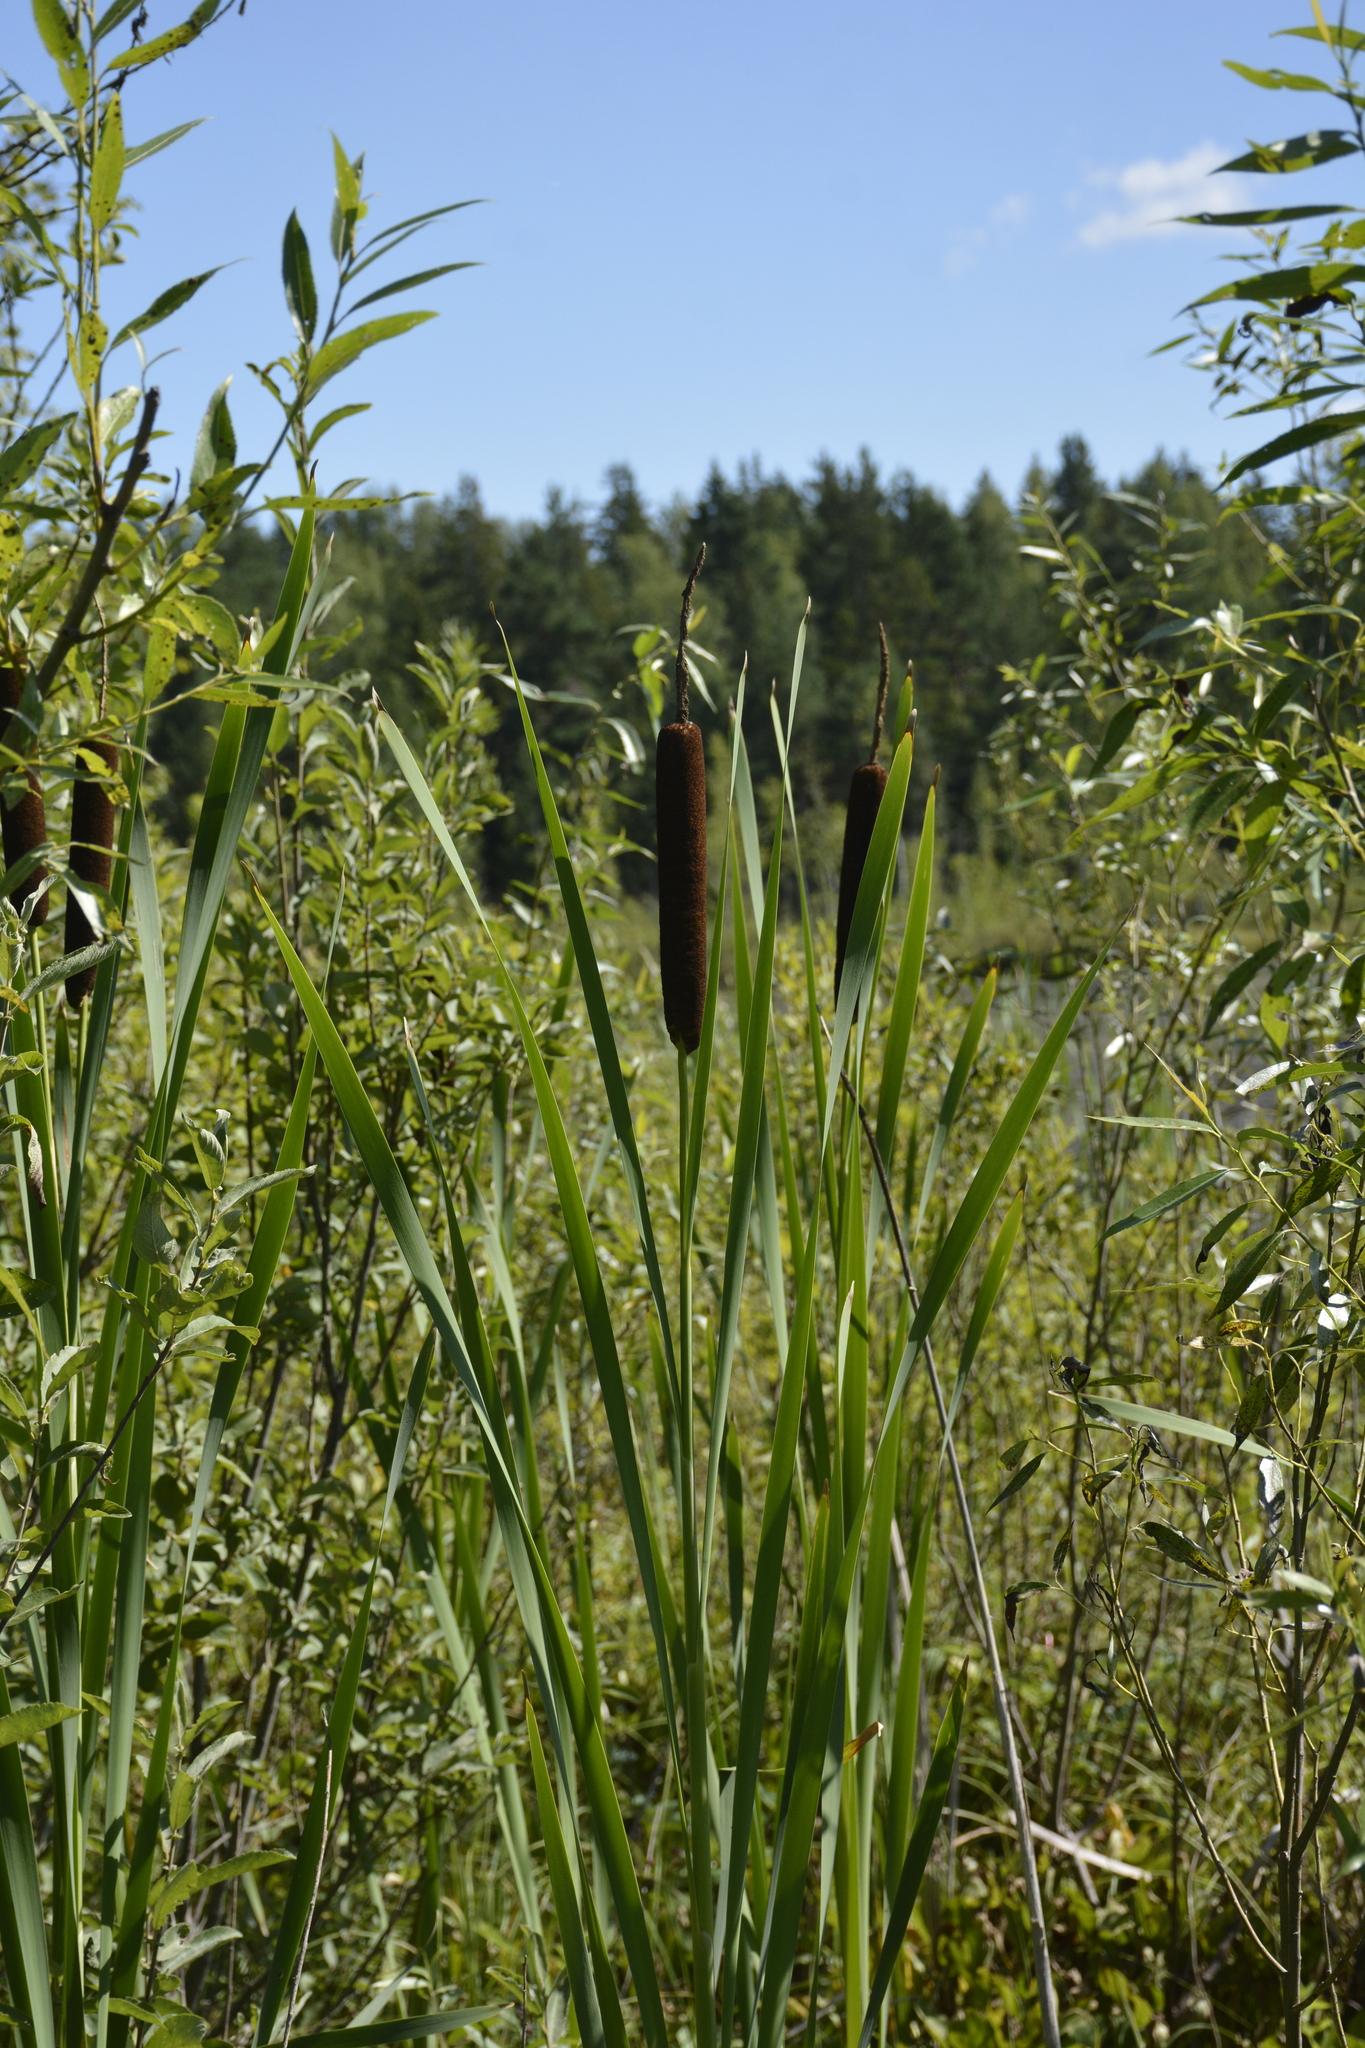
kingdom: Plantae
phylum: Tracheophyta
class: Liliopsida
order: Poales
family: Typhaceae
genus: Typha
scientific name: Typha latifolia
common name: Broadleaf cattail
